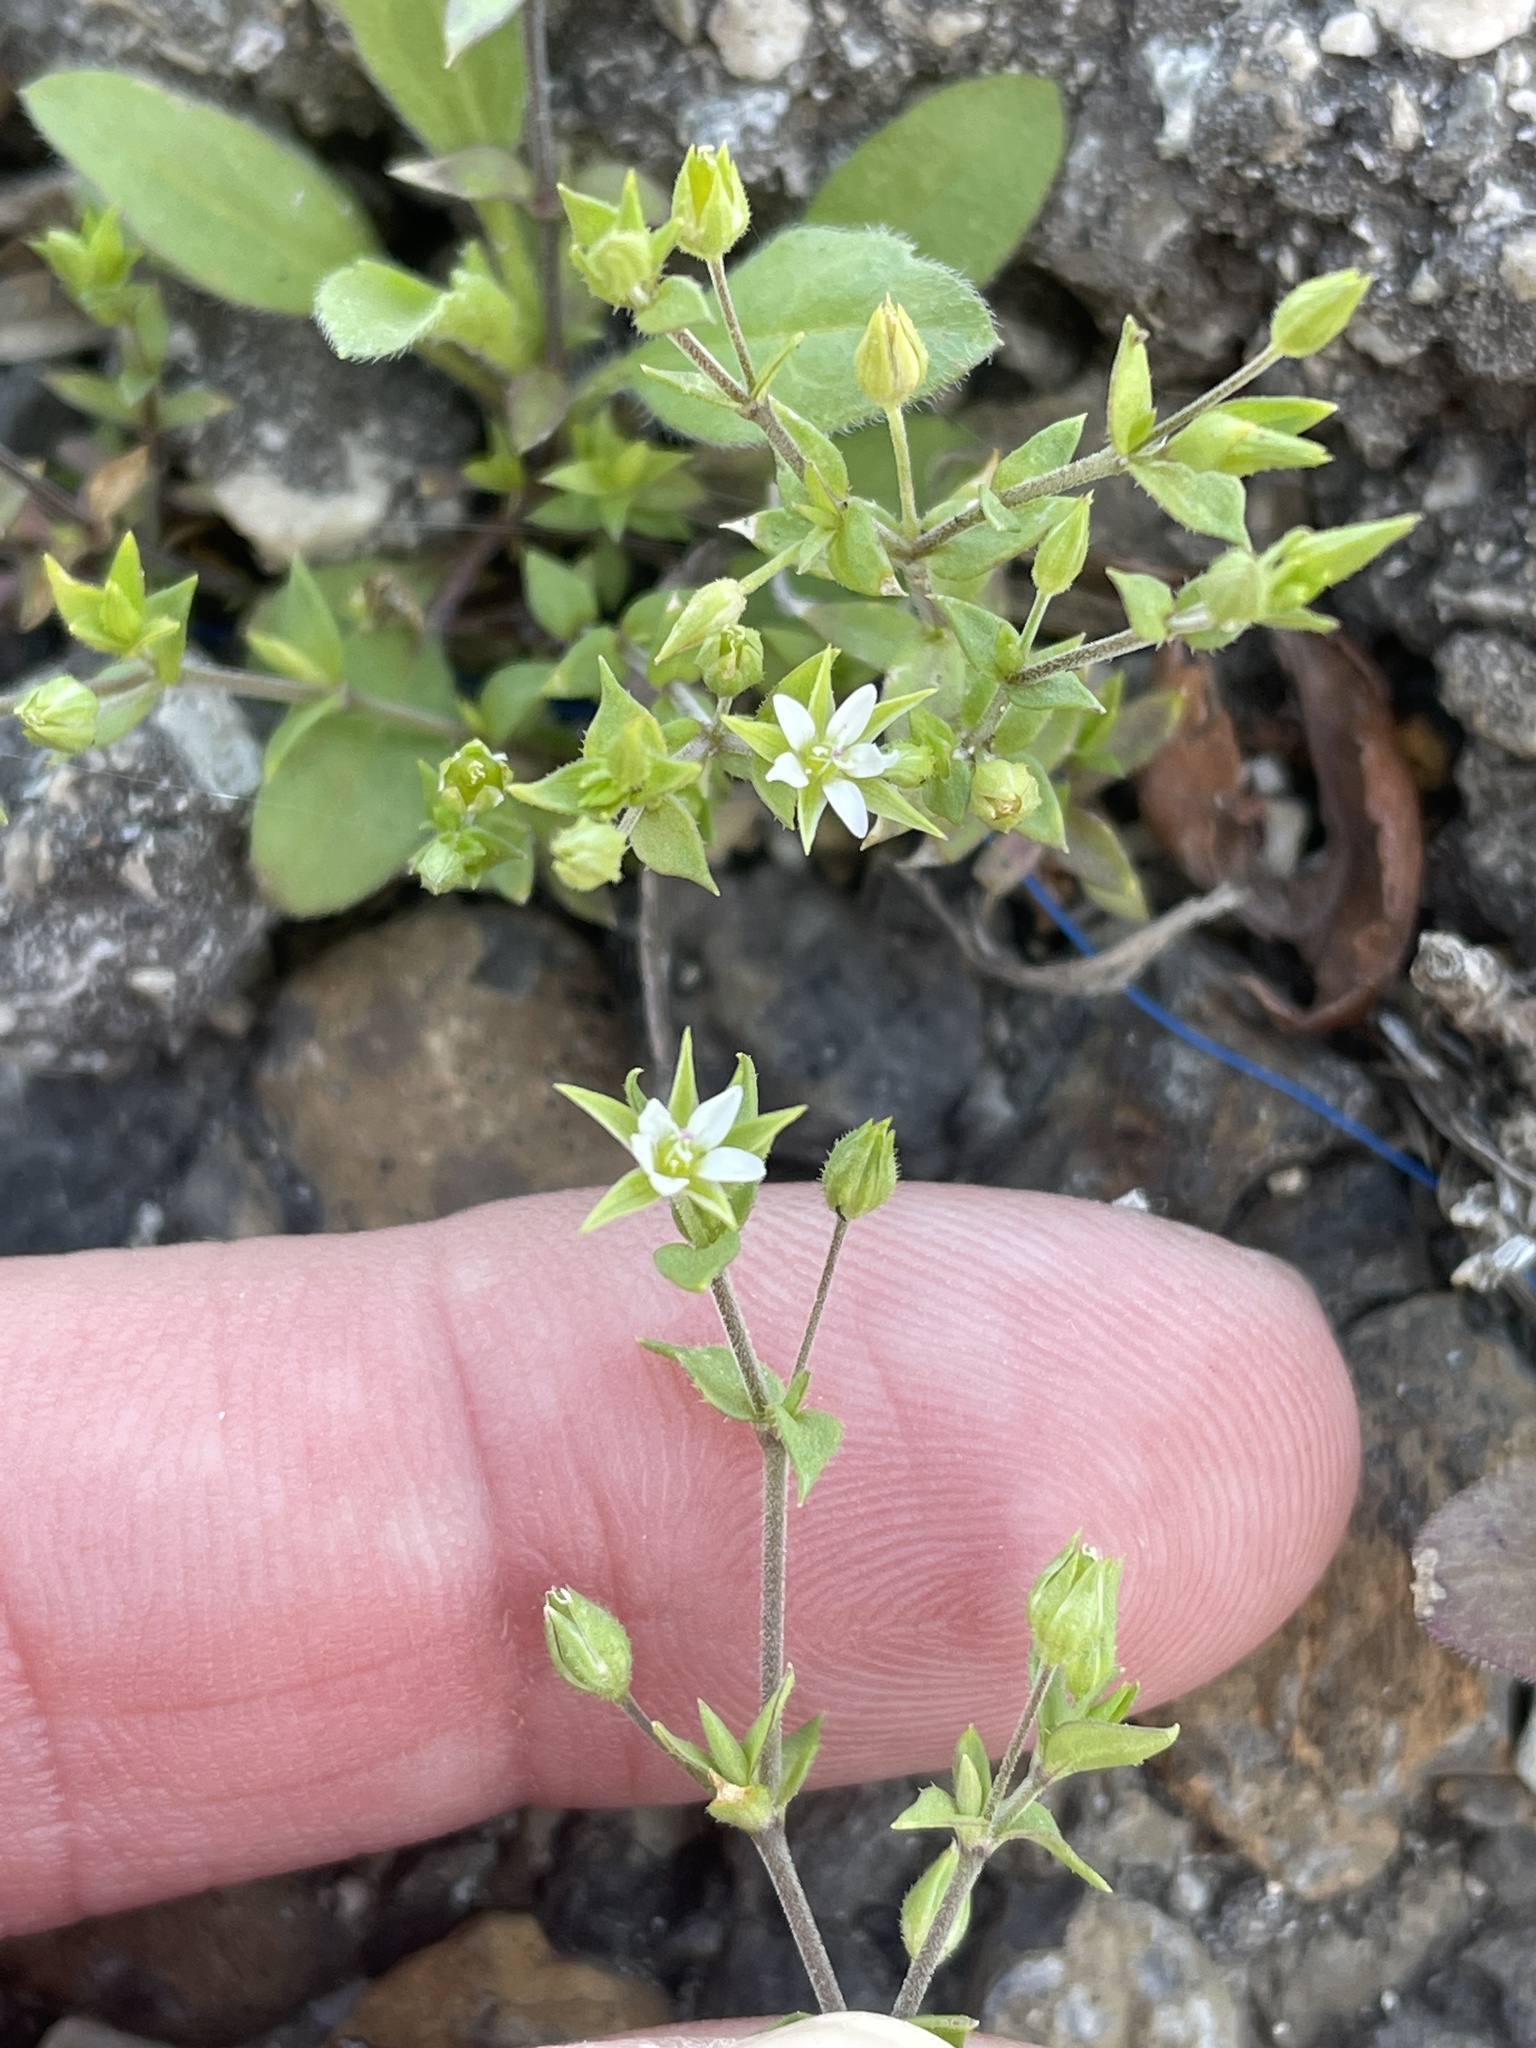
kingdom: Plantae
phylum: Tracheophyta
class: Magnoliopsida
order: Caryophyllales
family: Caryophyllaceae
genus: Arenaria
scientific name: Arenaria serpyllifolia
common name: Thyme-leaved sandwort
